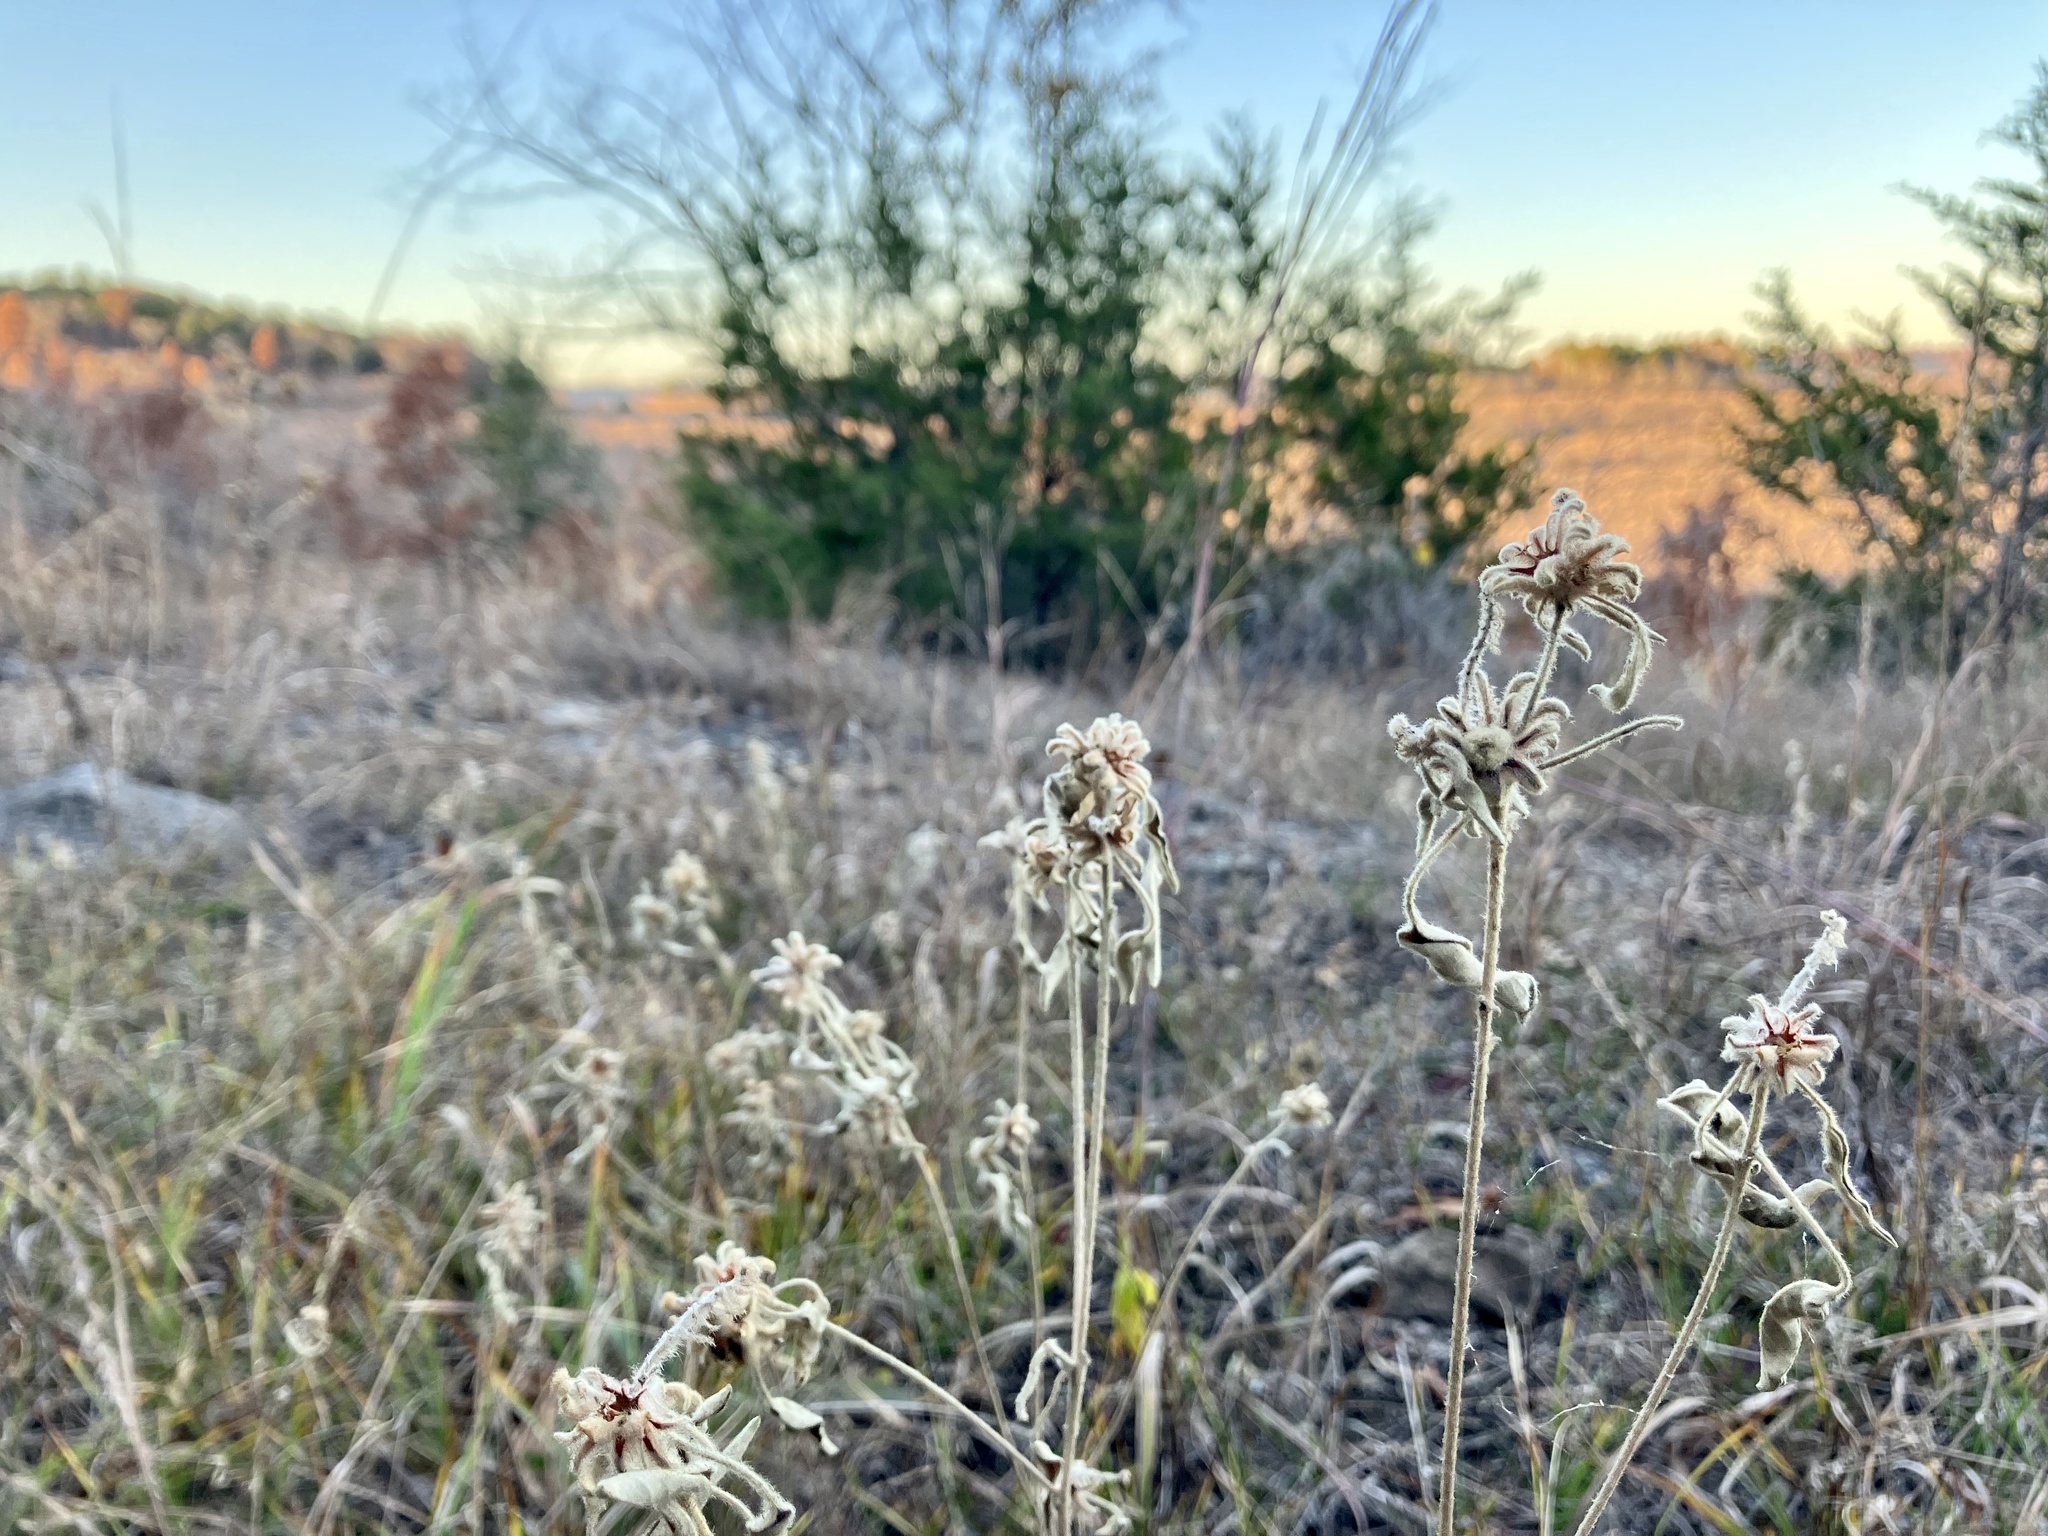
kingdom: Plantae
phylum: Tracheophyta
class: Magnoliopsida
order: Malpighiales
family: Euphorbiaceae
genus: Croton
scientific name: Croton capitatus
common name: Woolly croton
